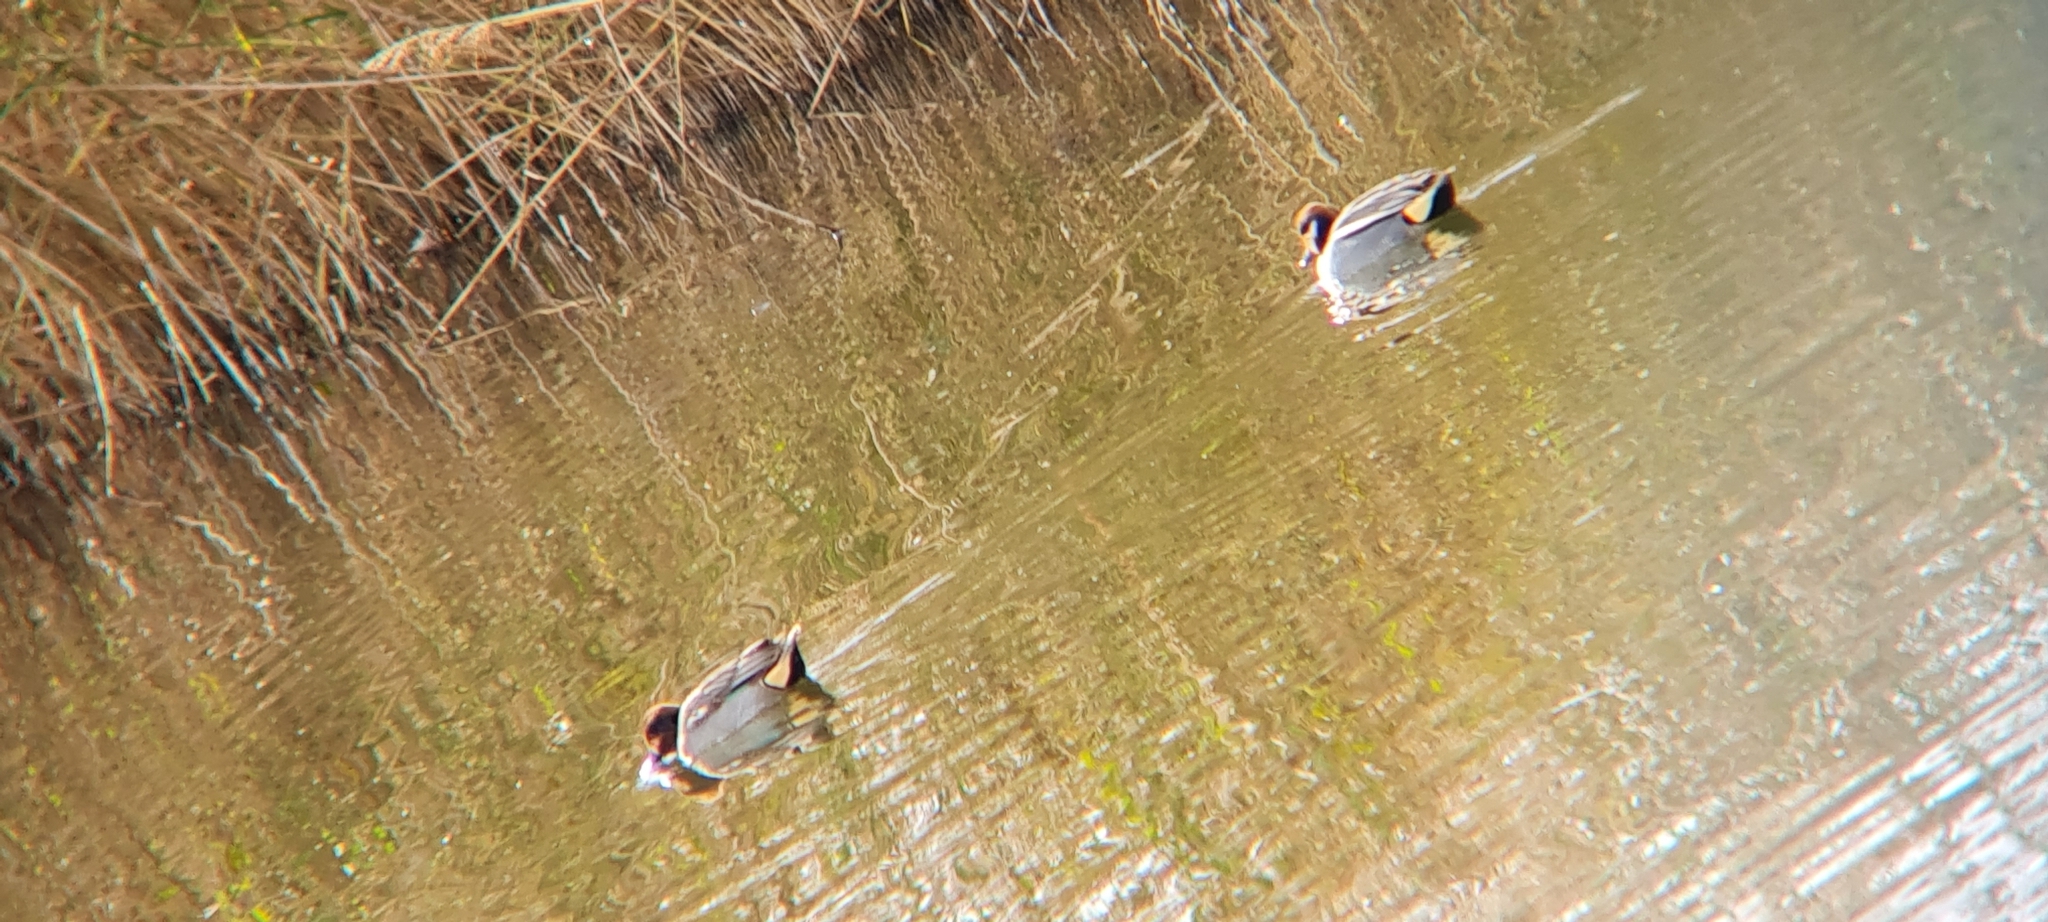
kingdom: Animalia
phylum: Chordata
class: Aves
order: Anseriformes
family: Anatidae
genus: Anas
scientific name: Anas crecca
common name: Eurasian teal
